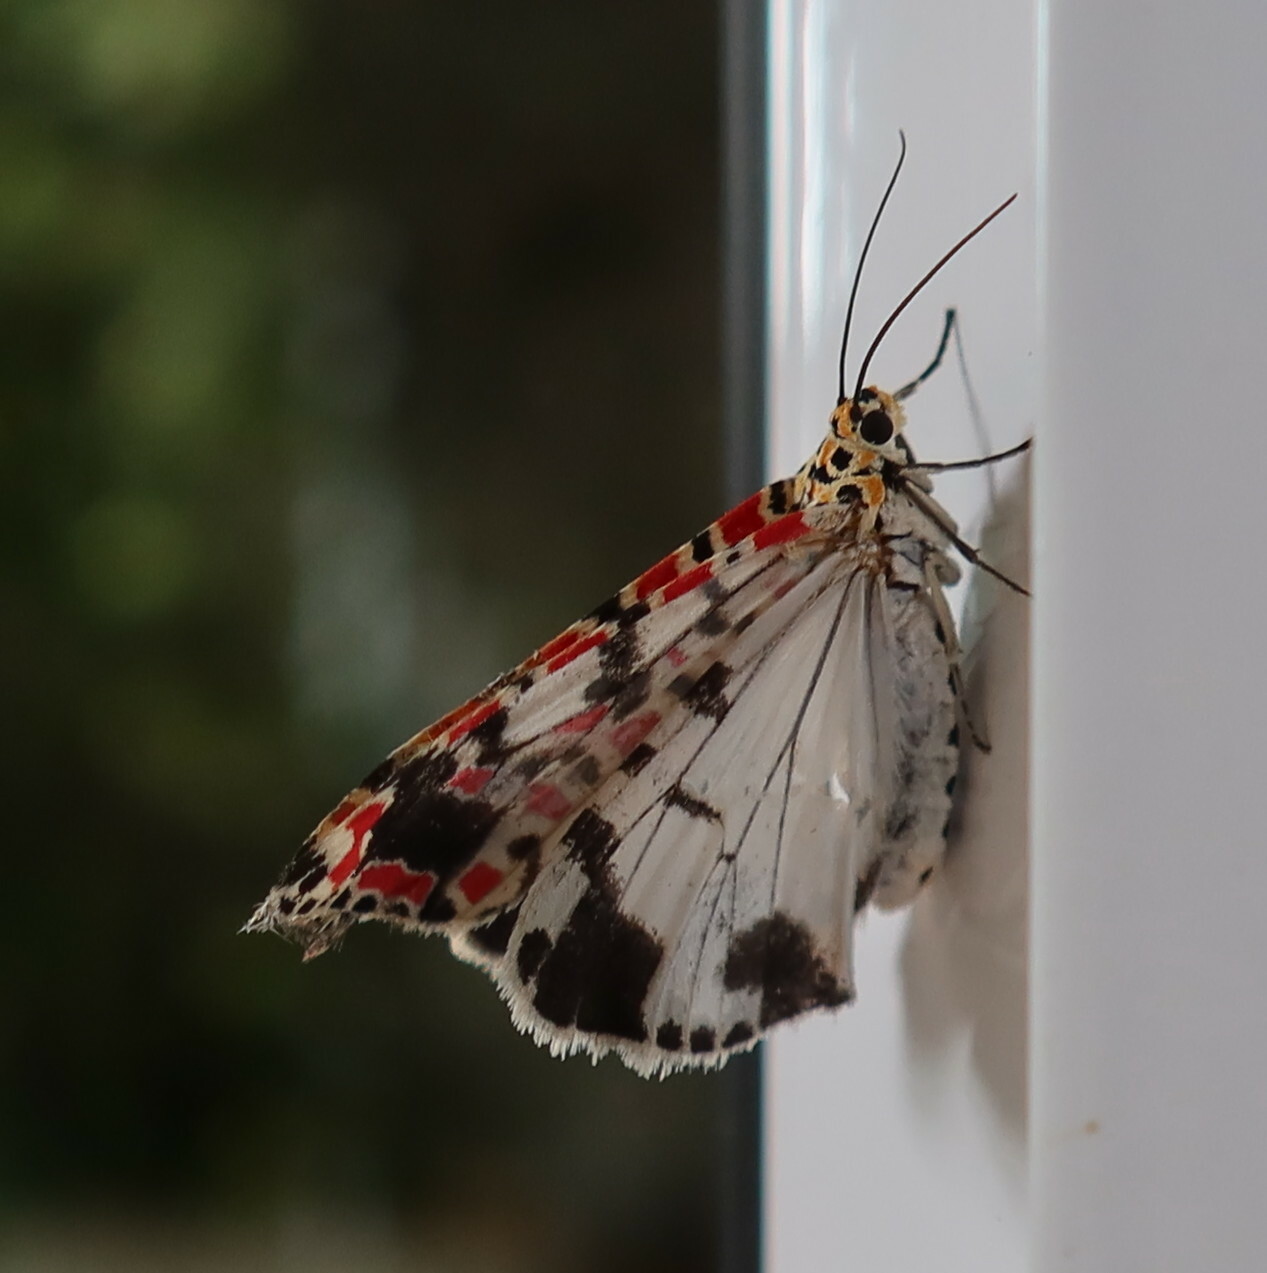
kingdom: Animalia
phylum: Arthropoda
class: Insecta
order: Lepidoptera
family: Erebidae
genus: Utetheisa
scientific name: Utetheisa pulchella
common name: Crimson speckled
